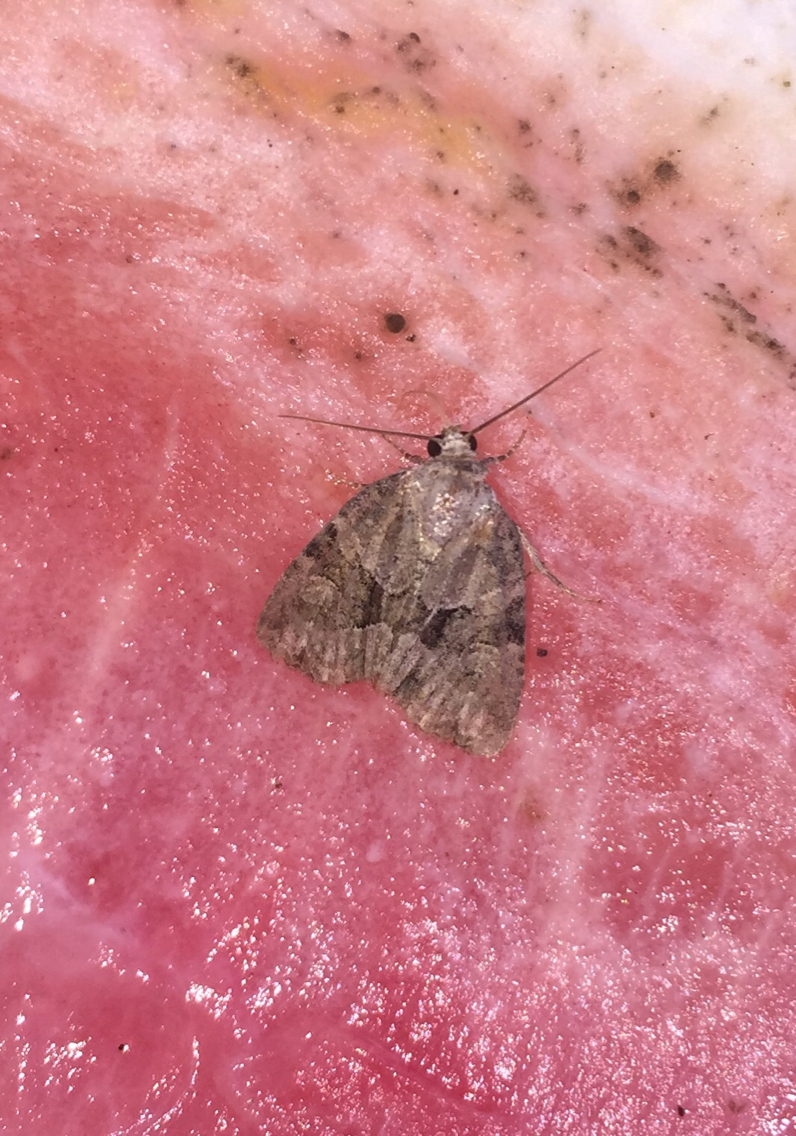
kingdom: Animalia
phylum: Arthropoda
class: Insecta
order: Lepidoptera
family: Noctuidae
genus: Neoligia
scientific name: Neoligia exhausta
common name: Exhausted brocade
